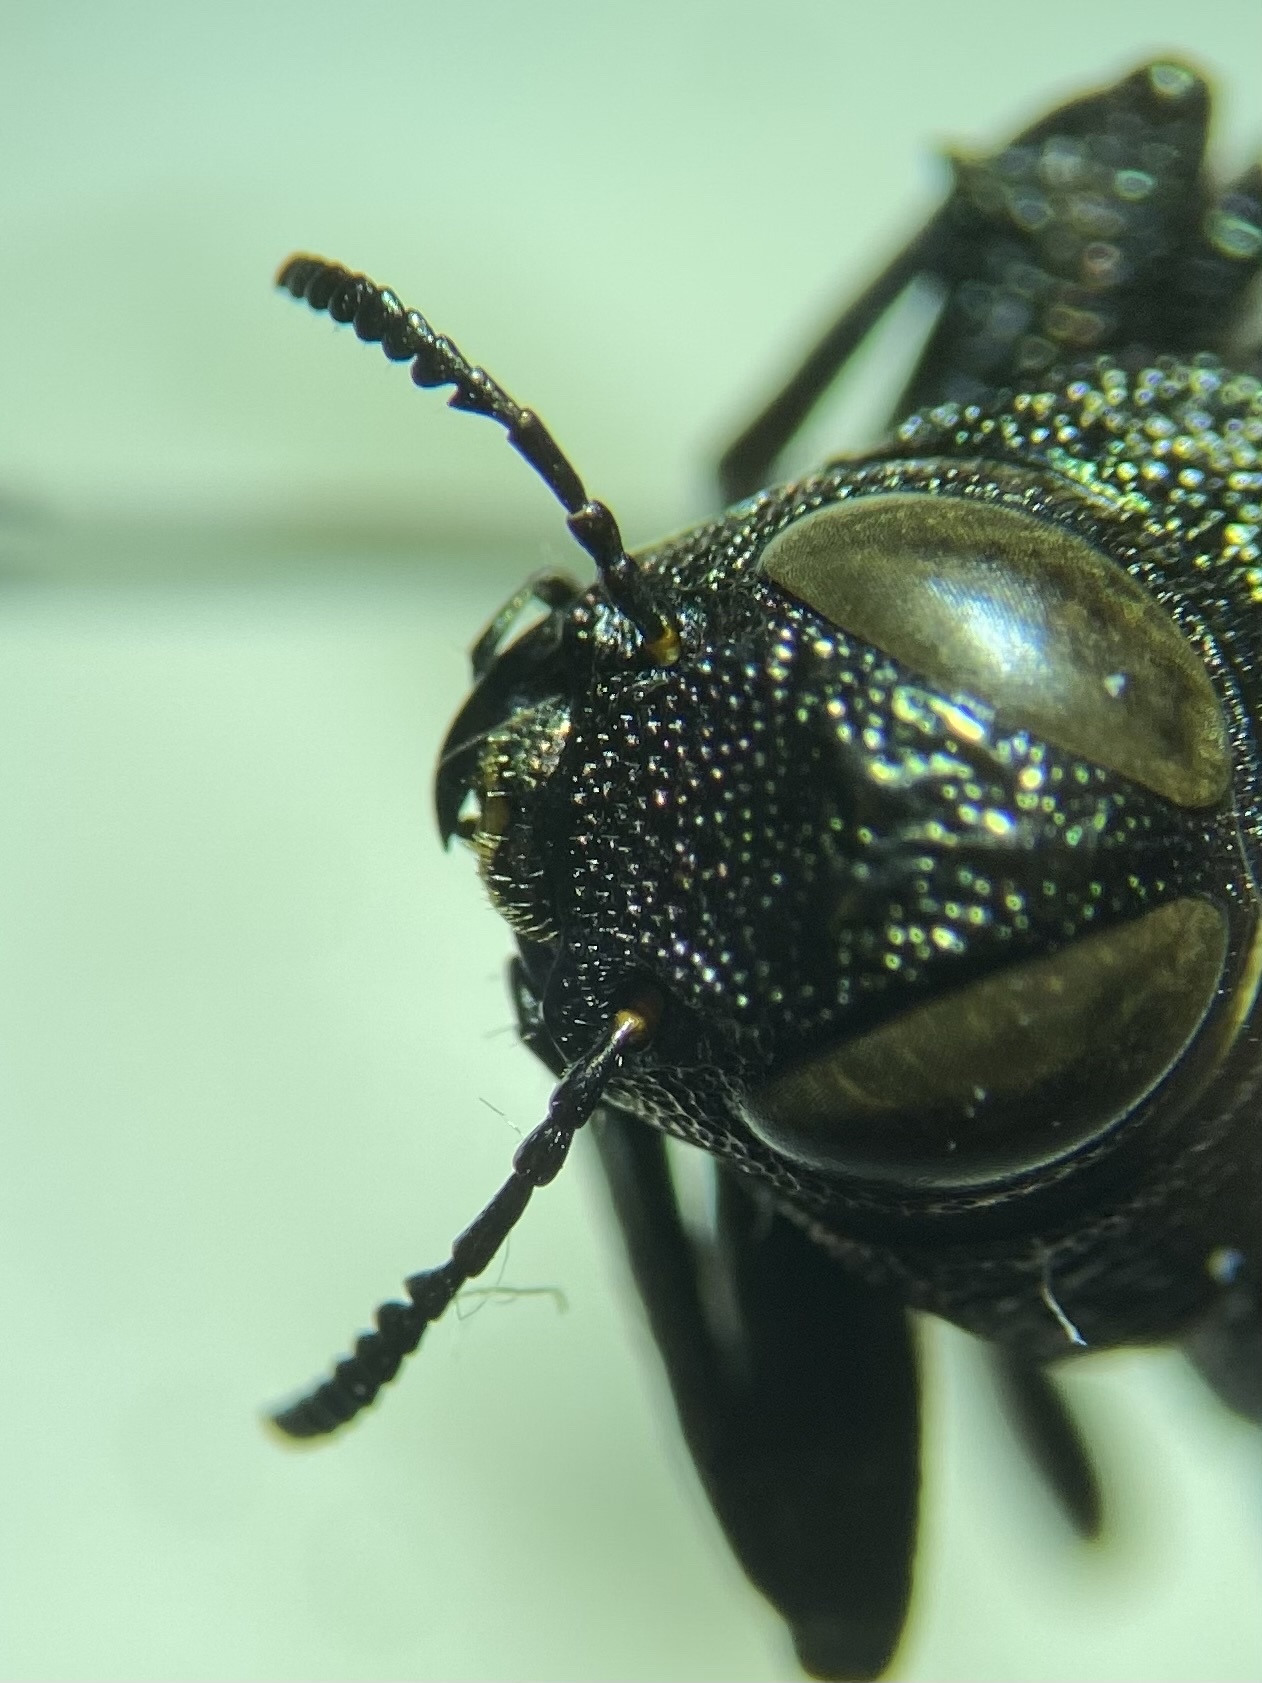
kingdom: Animalia
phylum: Arthropoda
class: Insecta
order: Coleoptera
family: Buprestidae
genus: Actenodes
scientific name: Actenodes acornis
